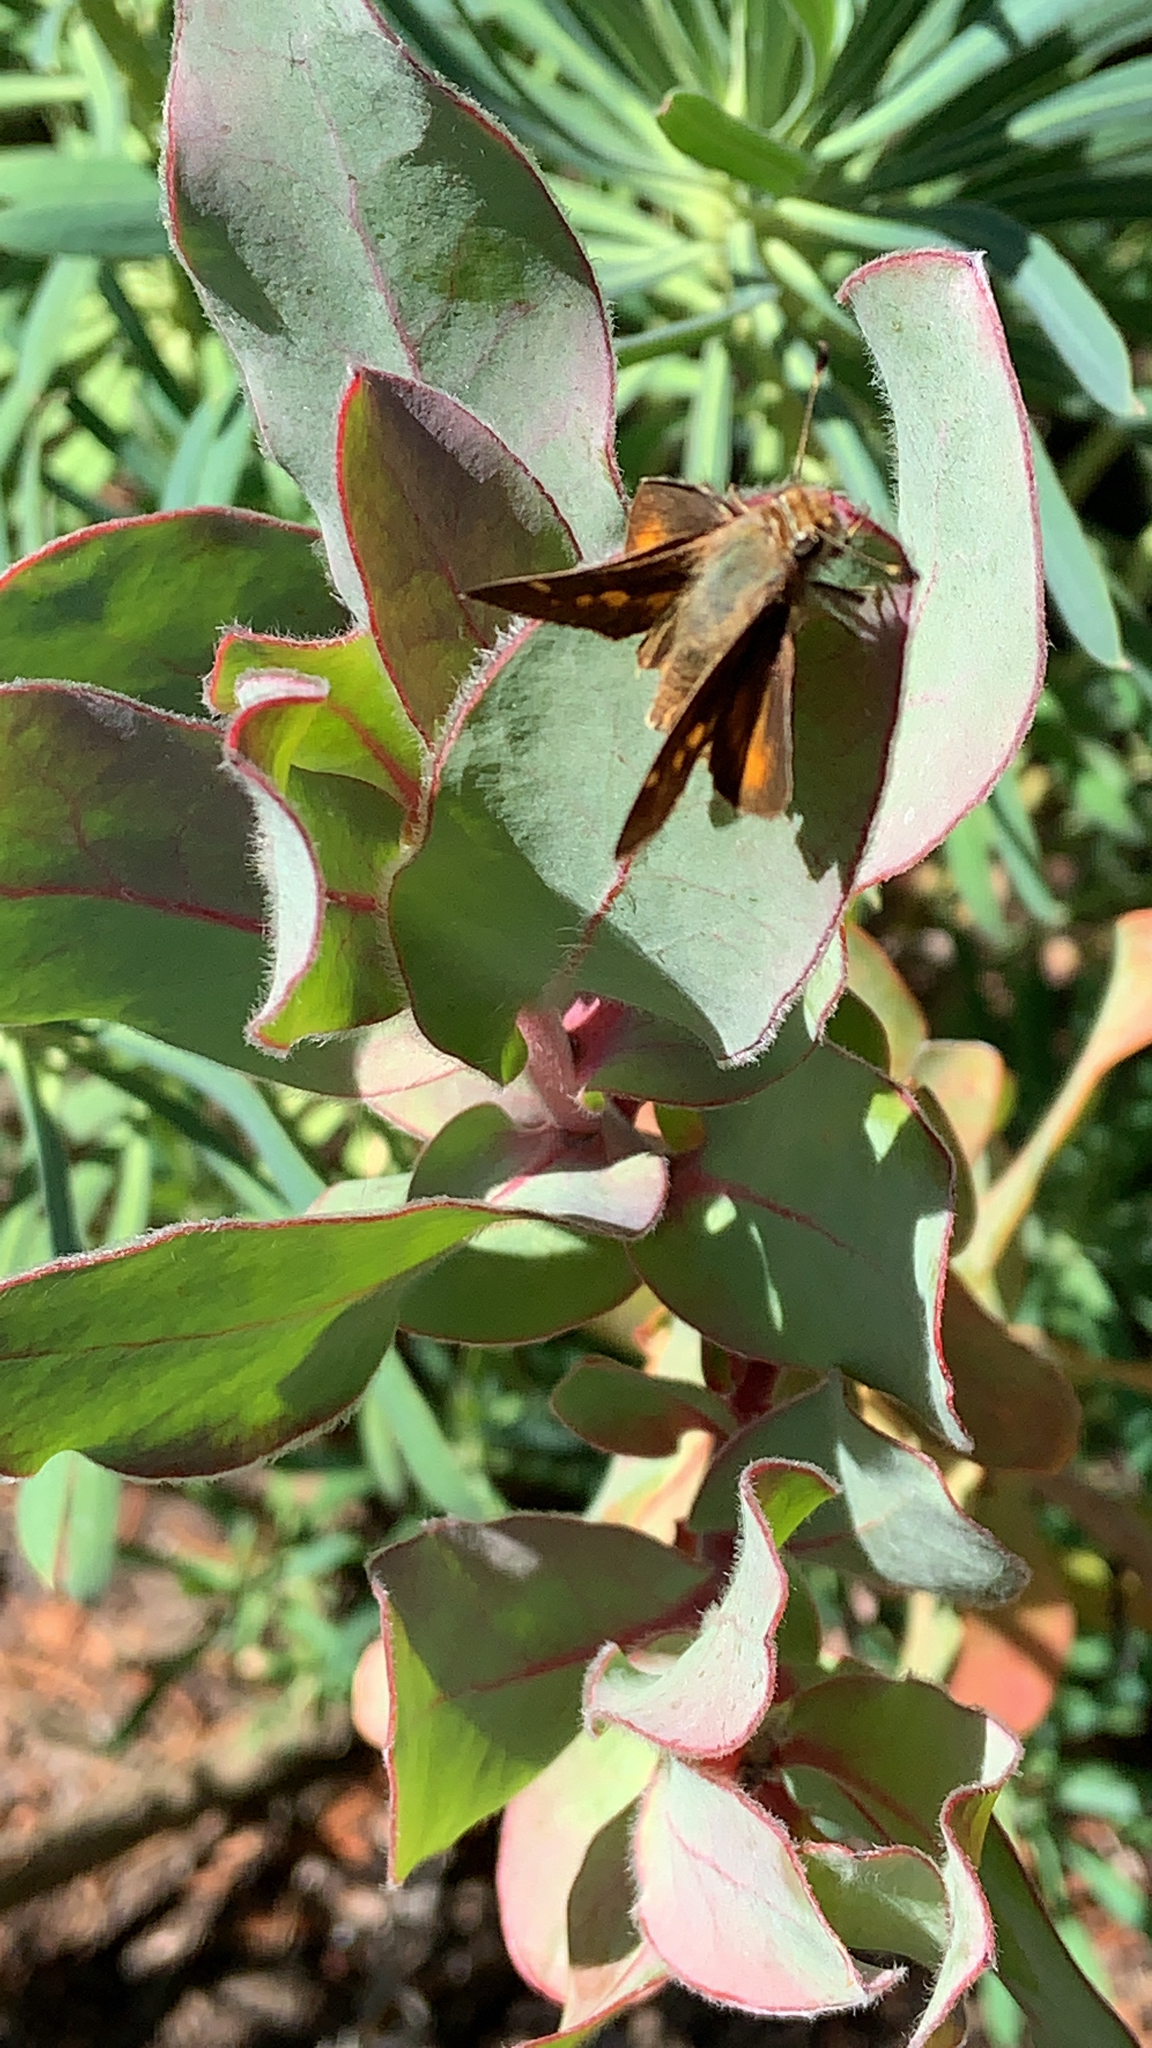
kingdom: Animalia
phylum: Arthropoda
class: Insecta
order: Lepidoptera
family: Hesperiidae
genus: Lon
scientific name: Lon melane
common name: Umber skipper
